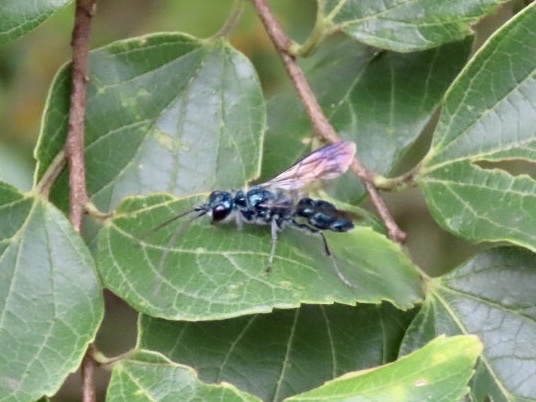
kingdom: Animalia
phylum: Arthropoda
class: Insecta
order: Hymenoptera
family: Ampulicidae
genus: Trirogma
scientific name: Trirogma caerulea
